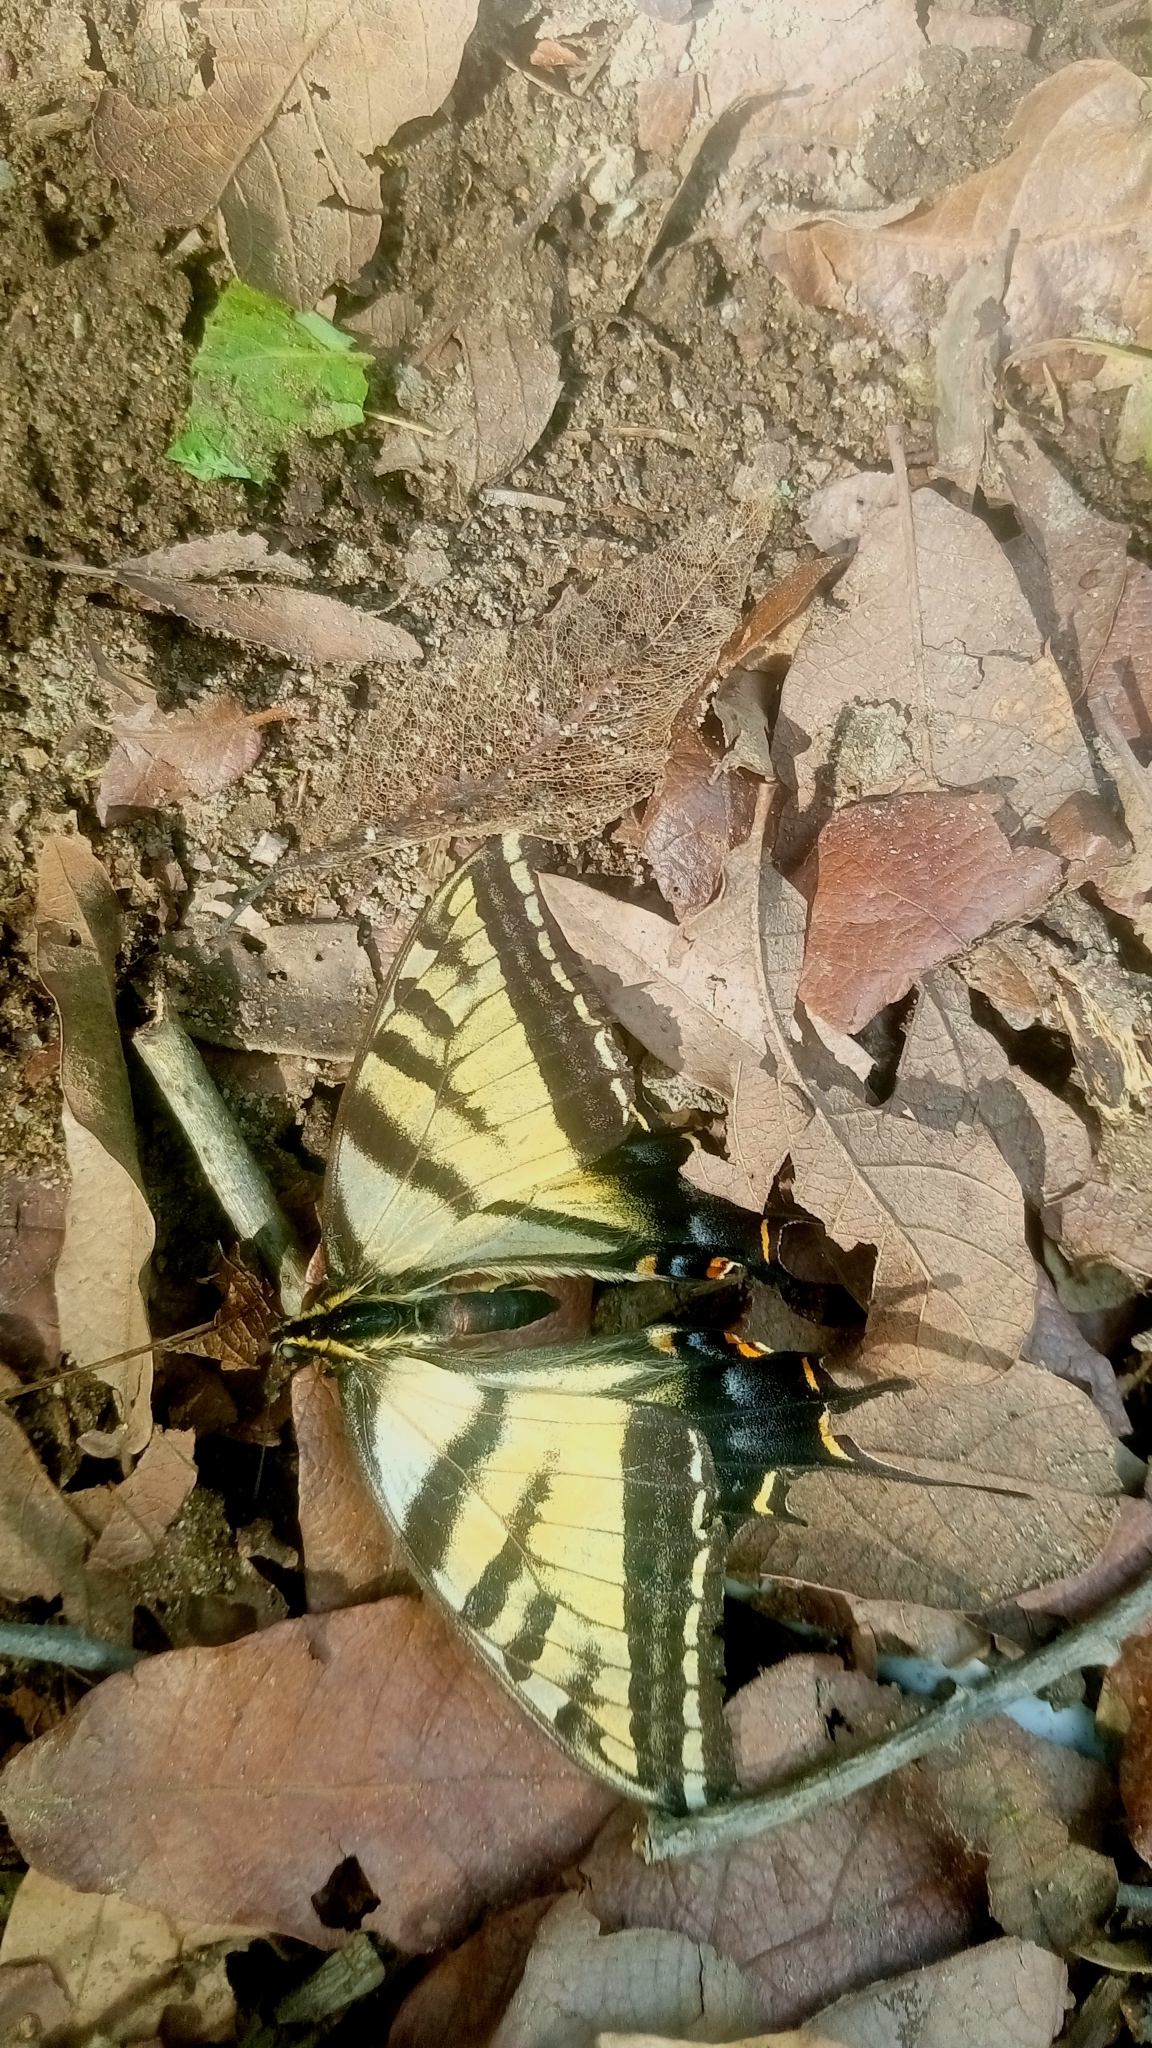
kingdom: Animalia
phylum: Arthropoda
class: Insecta
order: Lepidoptera
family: Papilionidae
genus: Papilio
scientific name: Papilio multicaudata
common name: Two-tailed tiger swallowtail
